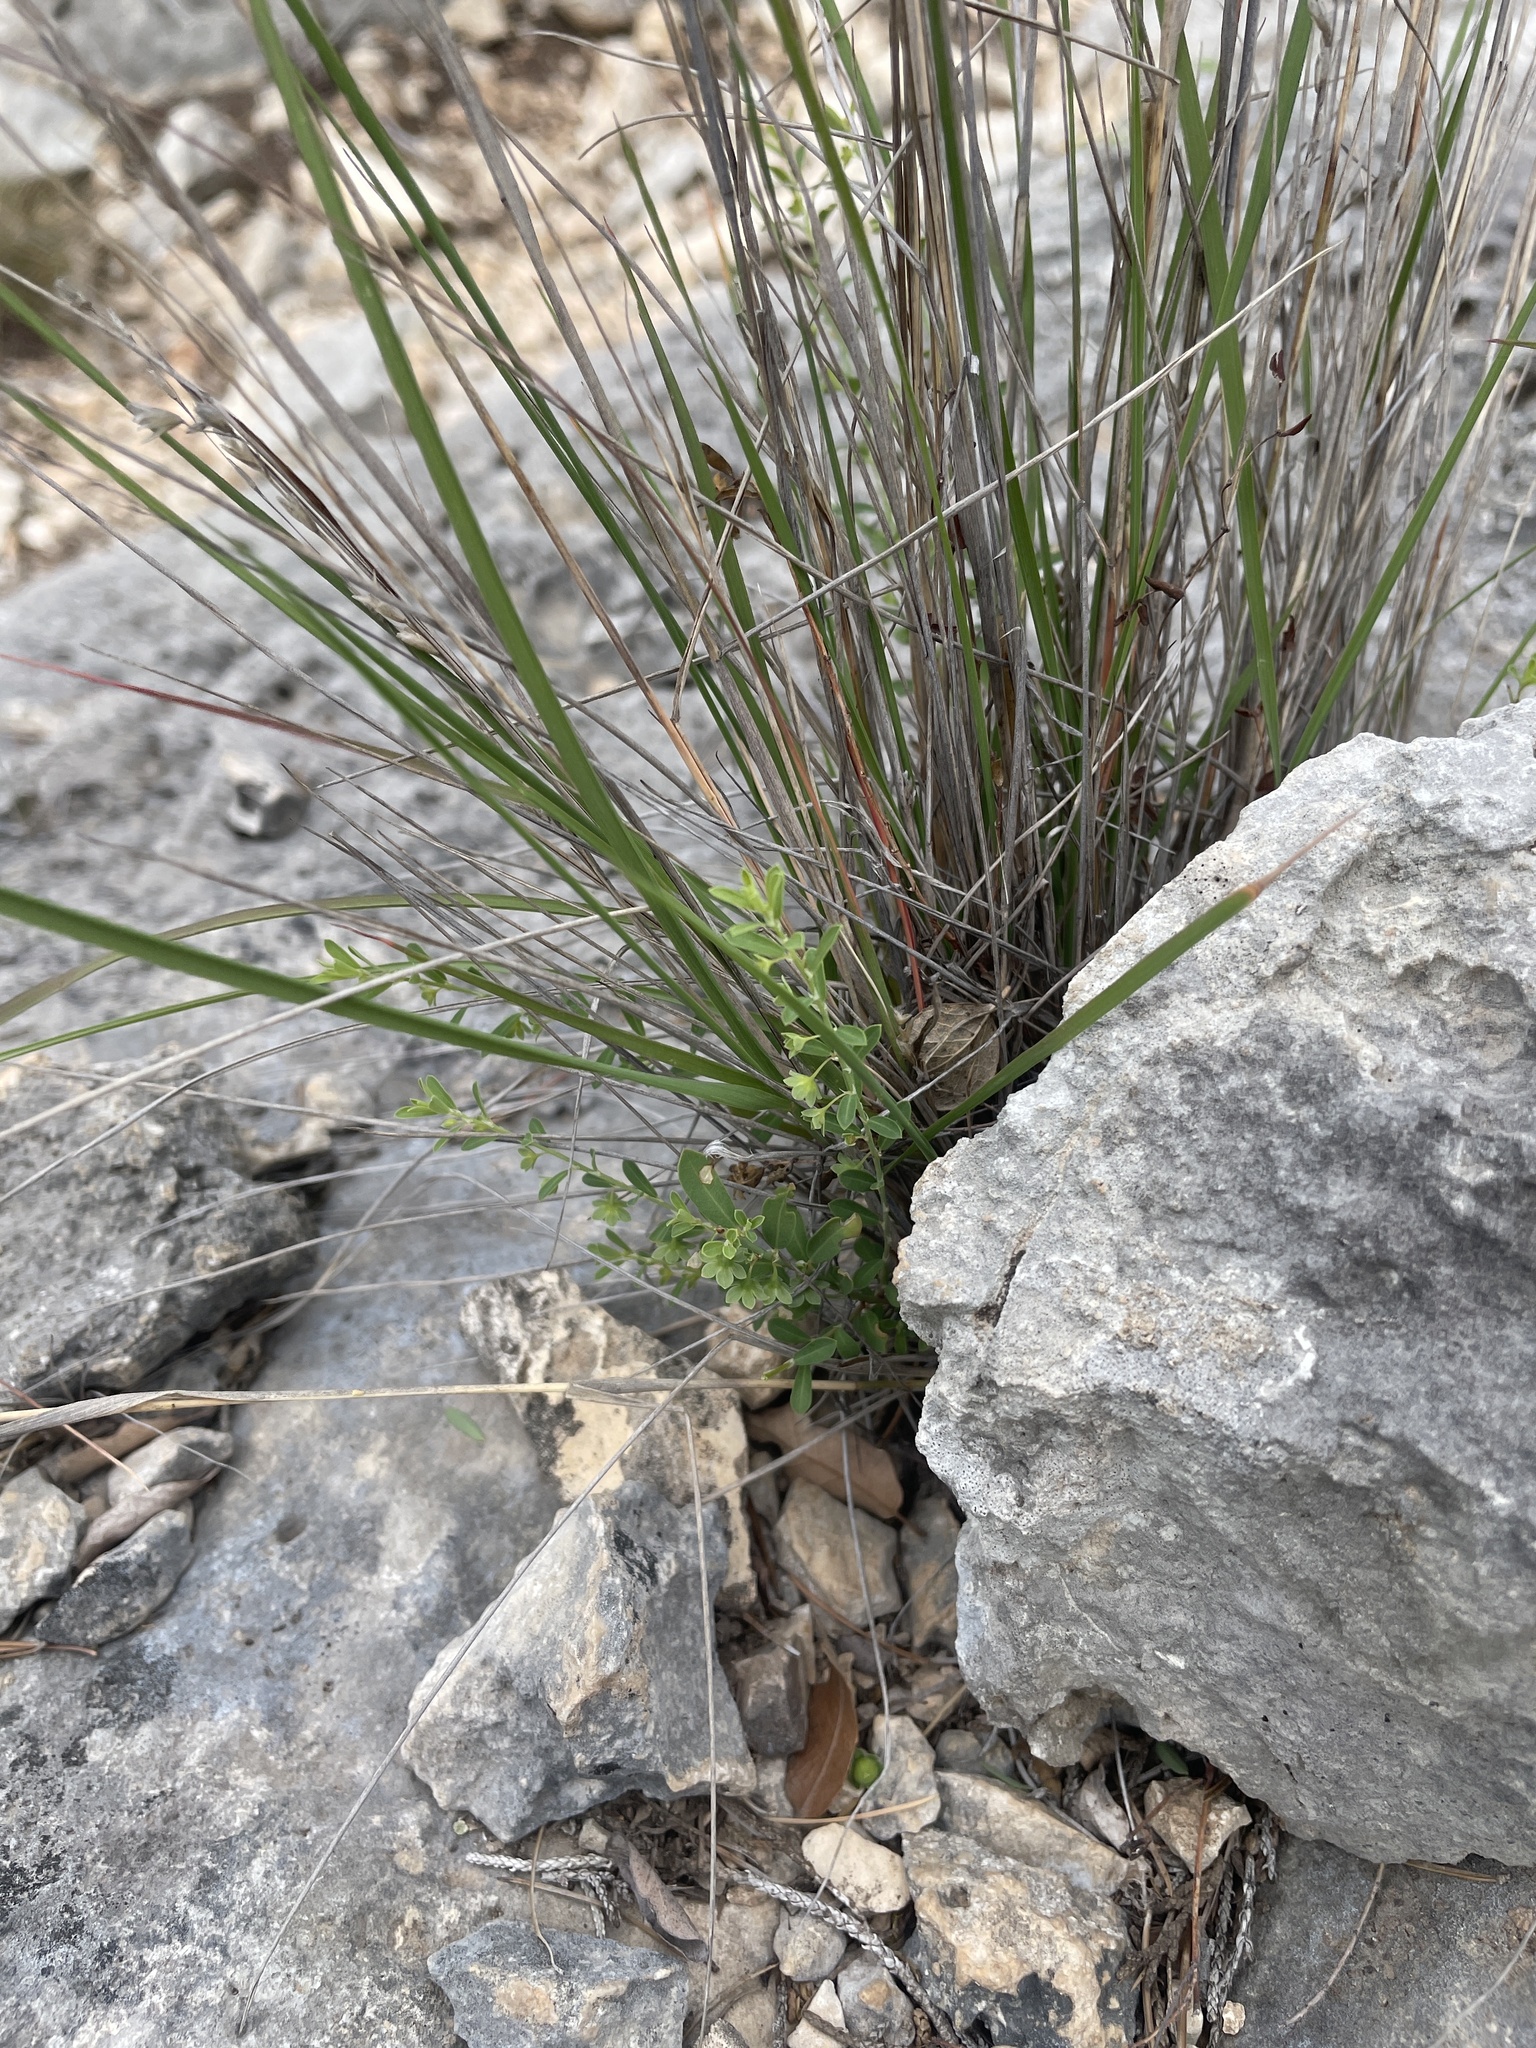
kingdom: Plantae
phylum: Tracheophyta
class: Magnoliopsida
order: Malpighiales
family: Phyllanthaceae
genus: Phyllanthus
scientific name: Phyllanthus polygonoides
